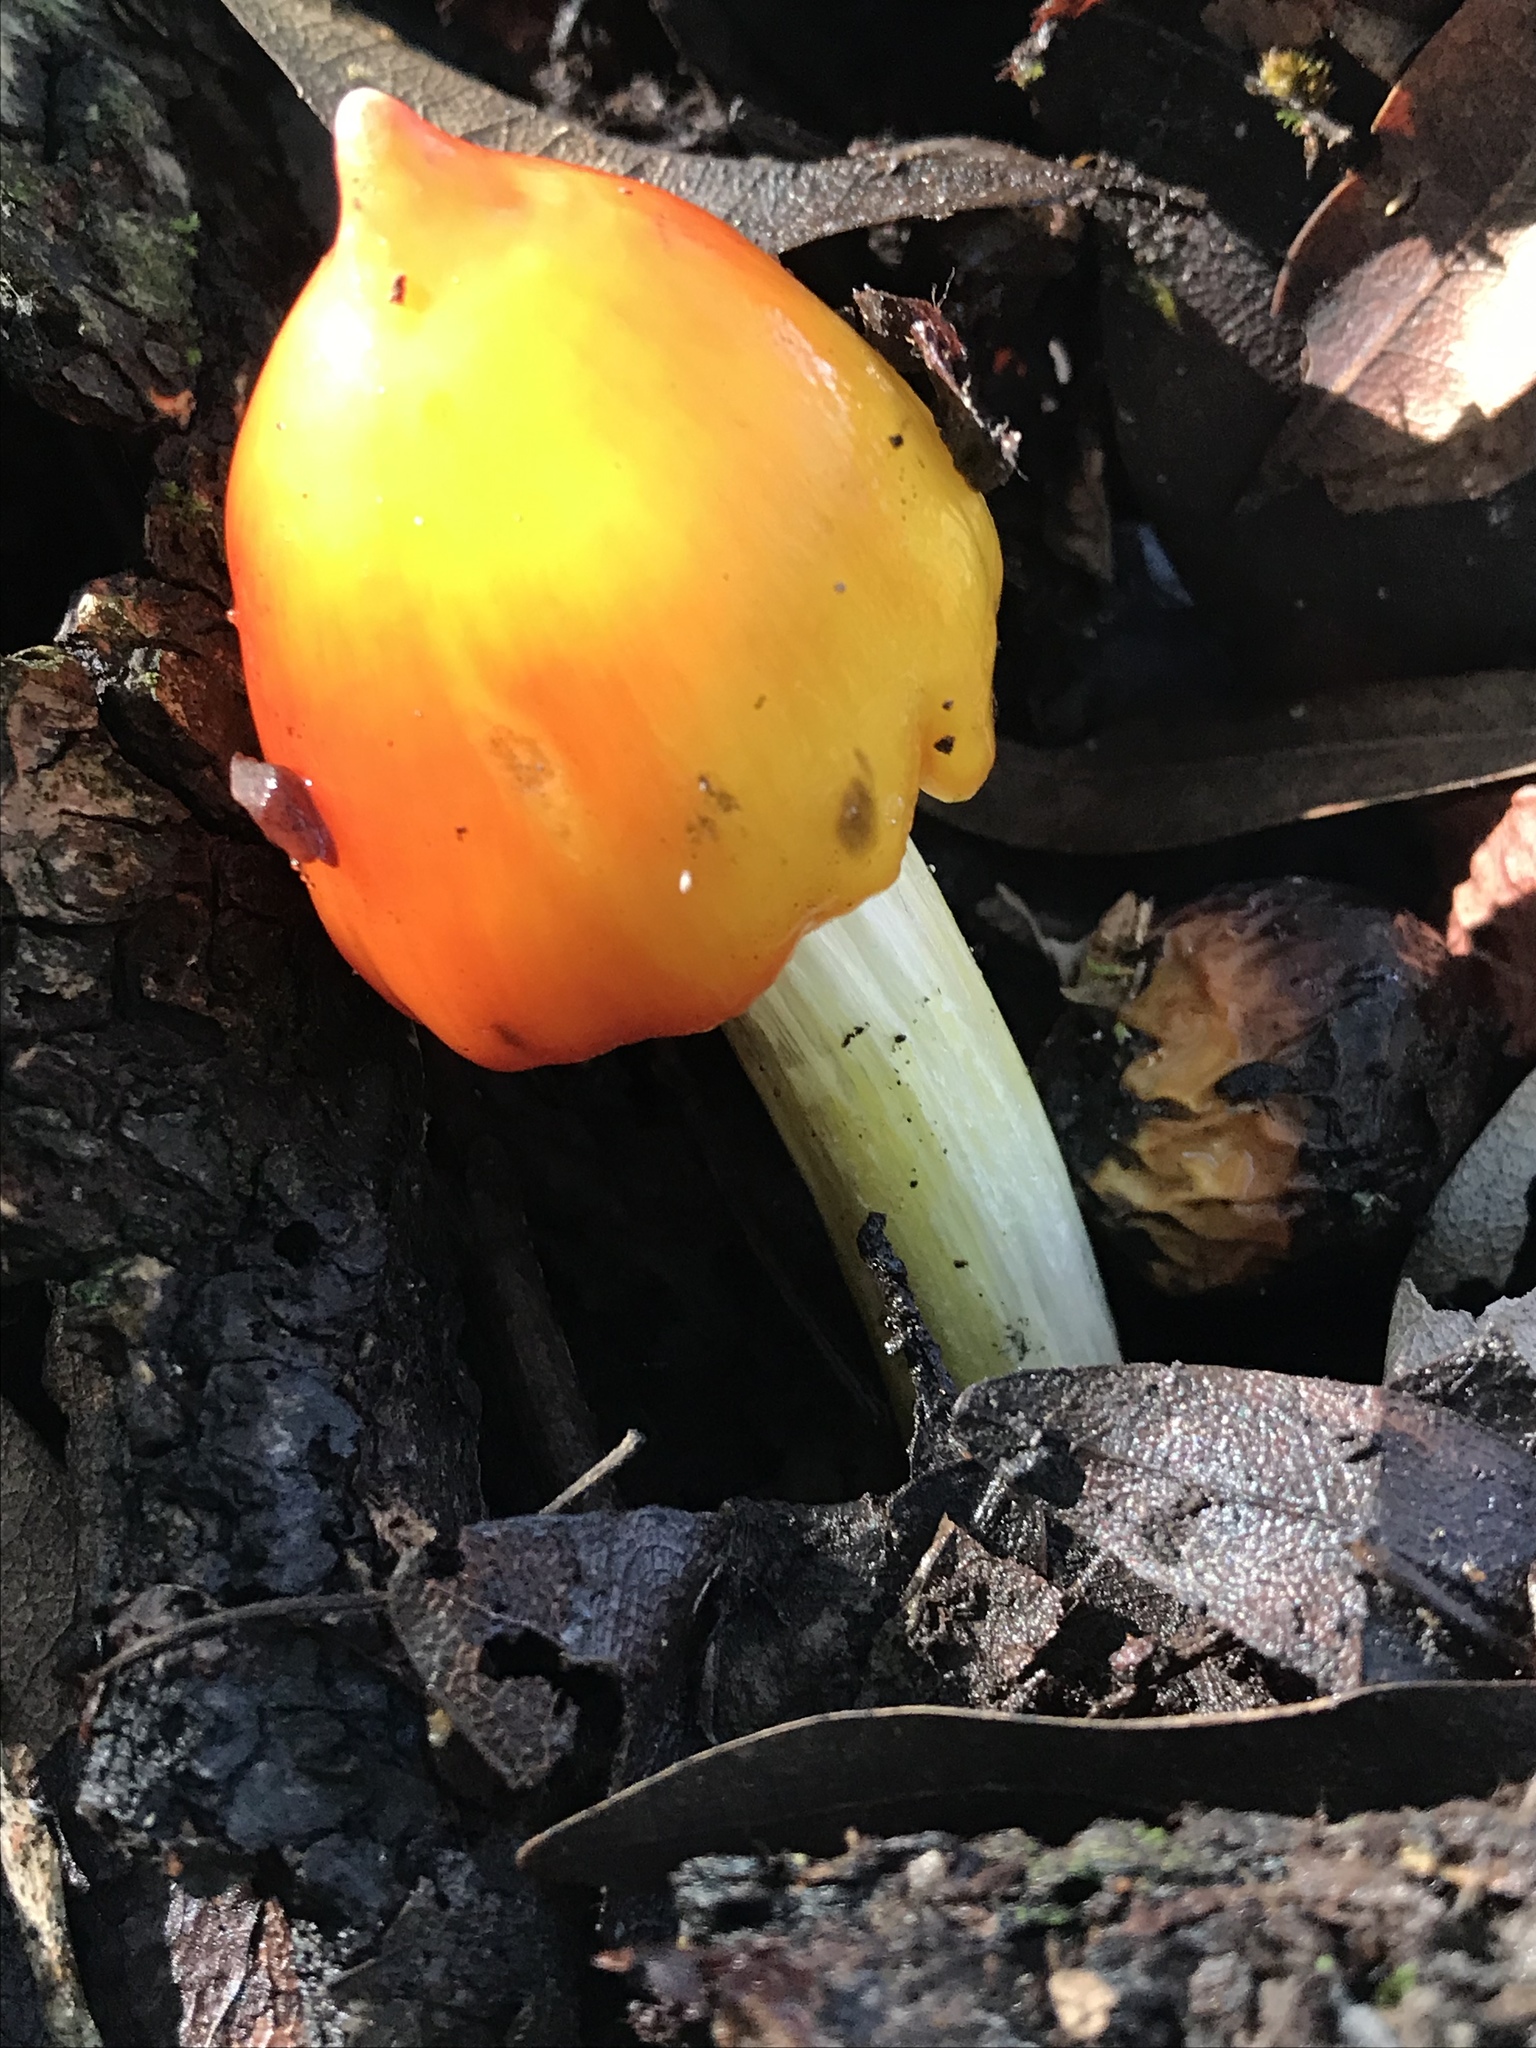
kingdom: Fungi
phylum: Basidiomycota
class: Agaricomycetes
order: Agaricales
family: Hygrophoraceae
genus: Hygrocybe
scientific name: Hygrocybe singeri
